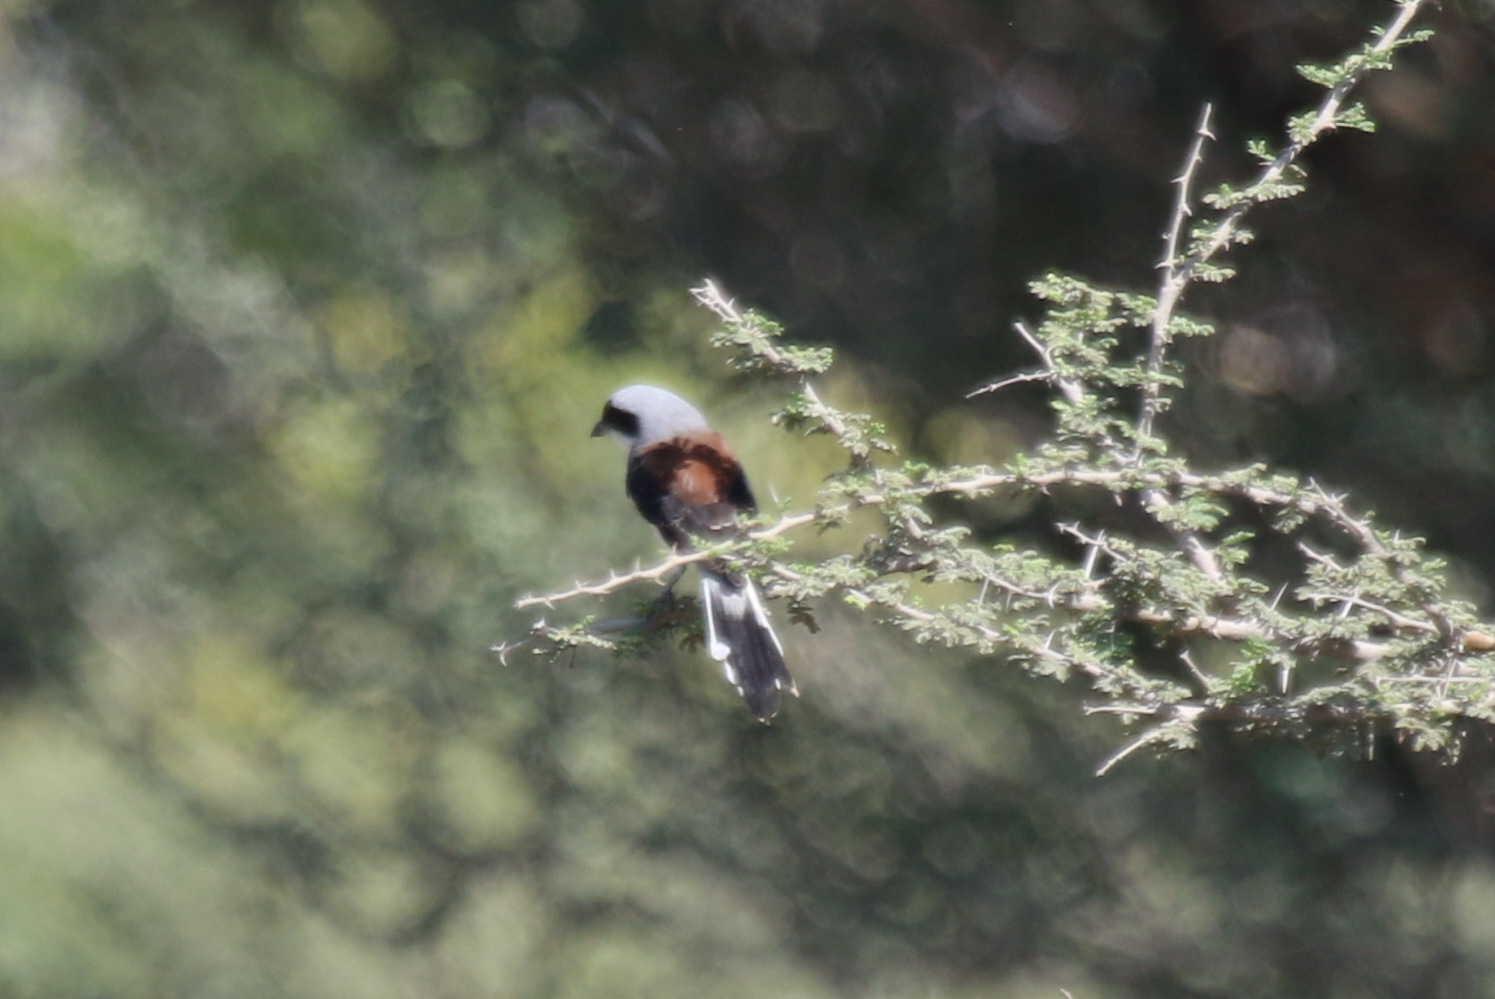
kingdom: Animalia
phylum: Chordata
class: Aves
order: Passeriformes
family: Laniidae
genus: Lanius
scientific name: Lanius vittatus
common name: Bay-backed shrike
